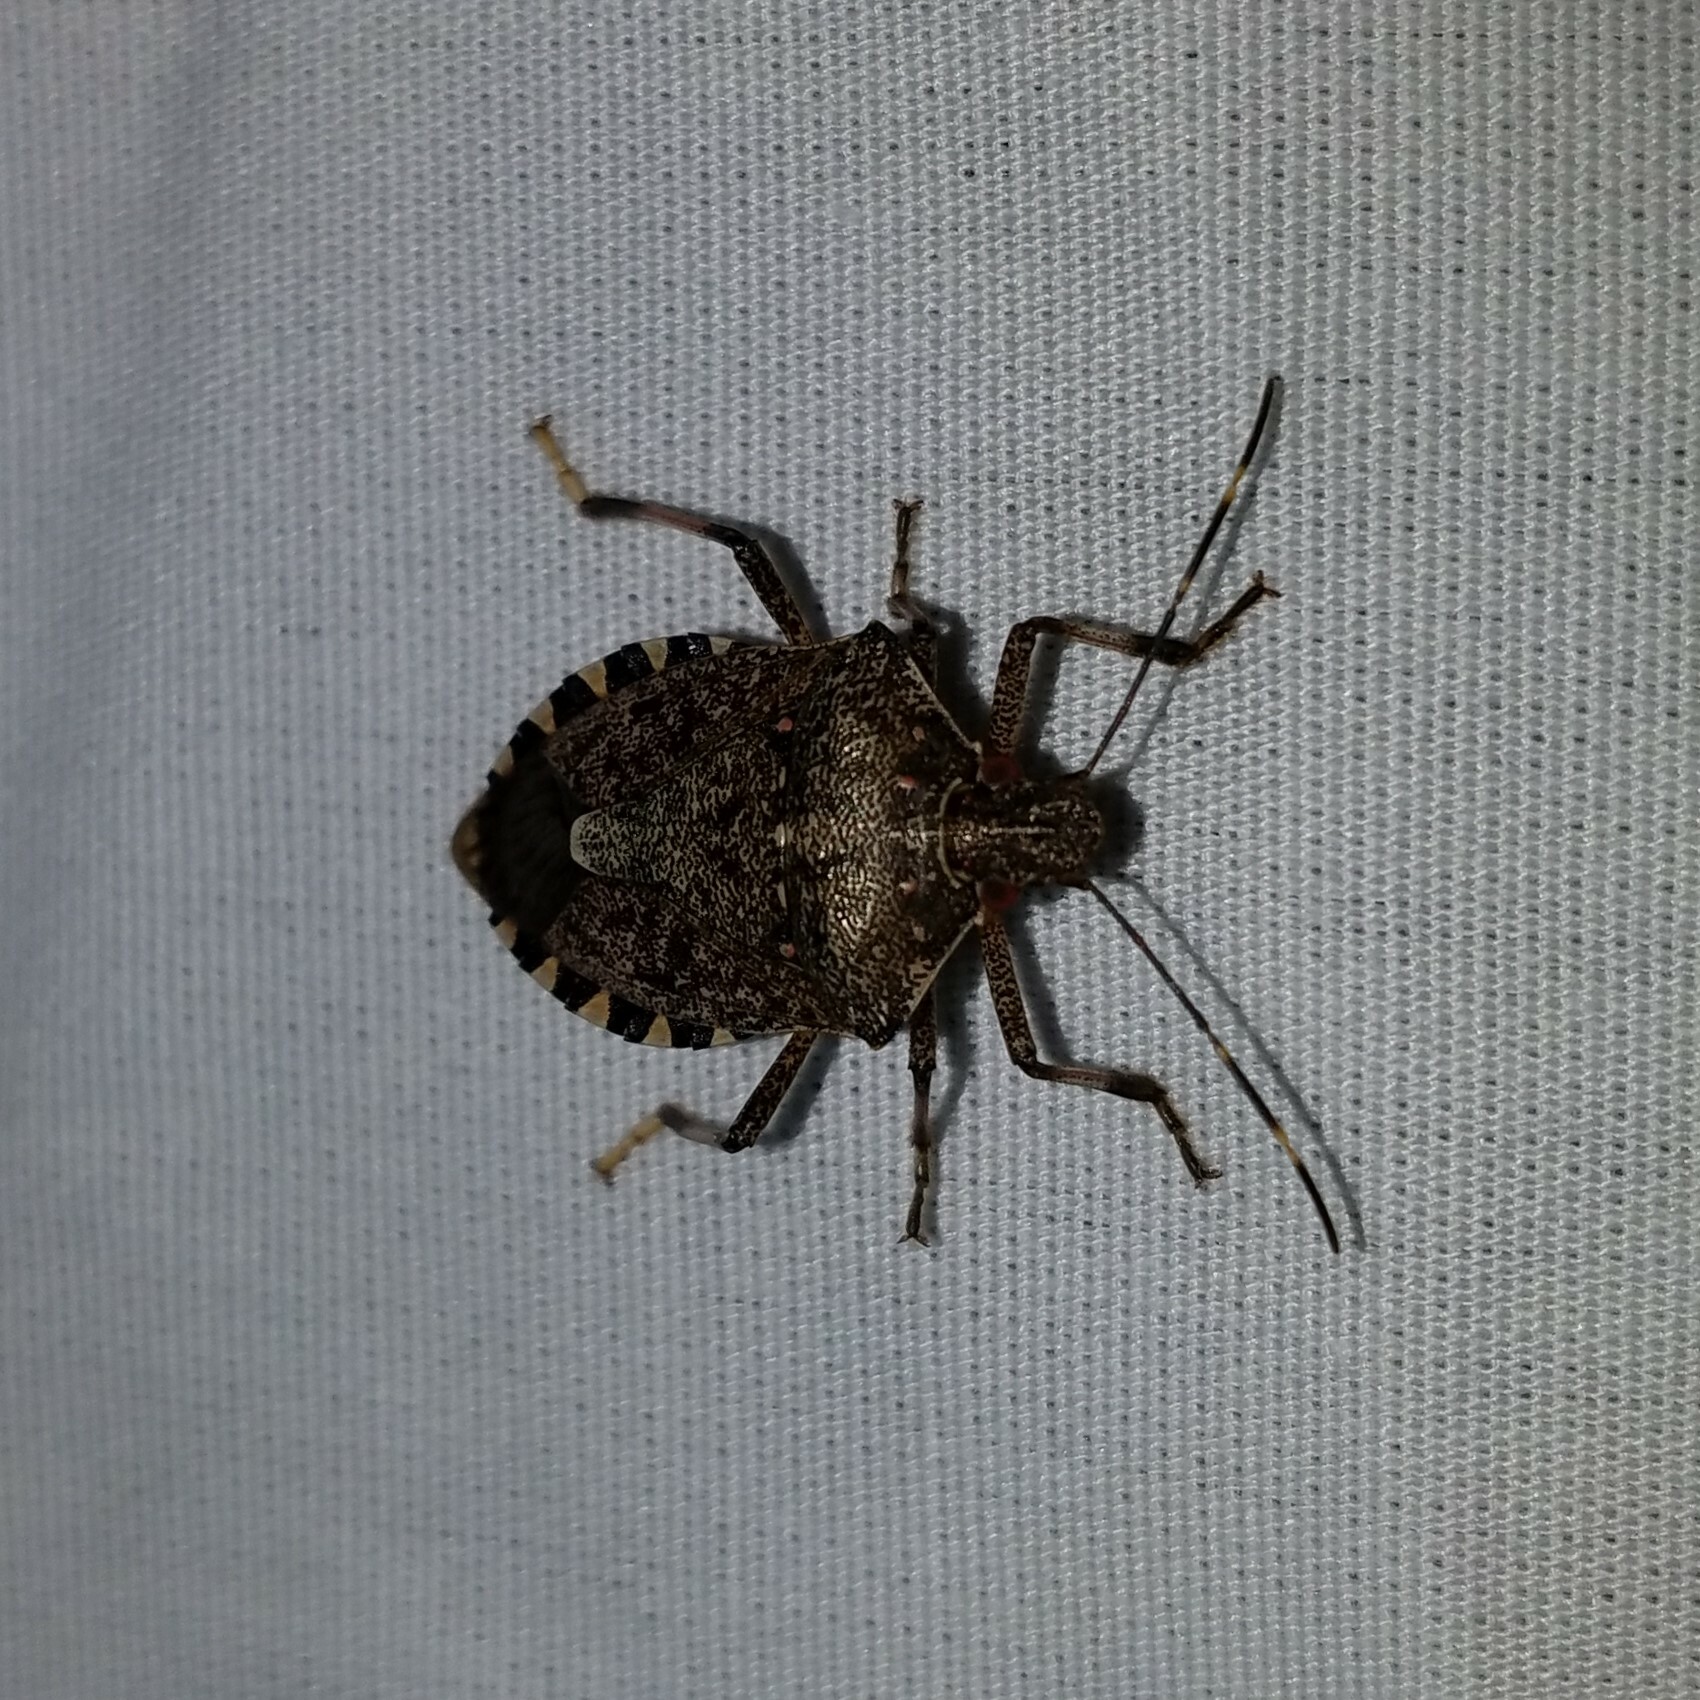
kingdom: Animalia
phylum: Arthropoda
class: Insecta
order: Hemiptera
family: Pentatomidae
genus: Halyomorpha
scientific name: Halyomorpha halys
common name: Brown marmorated stink bug
